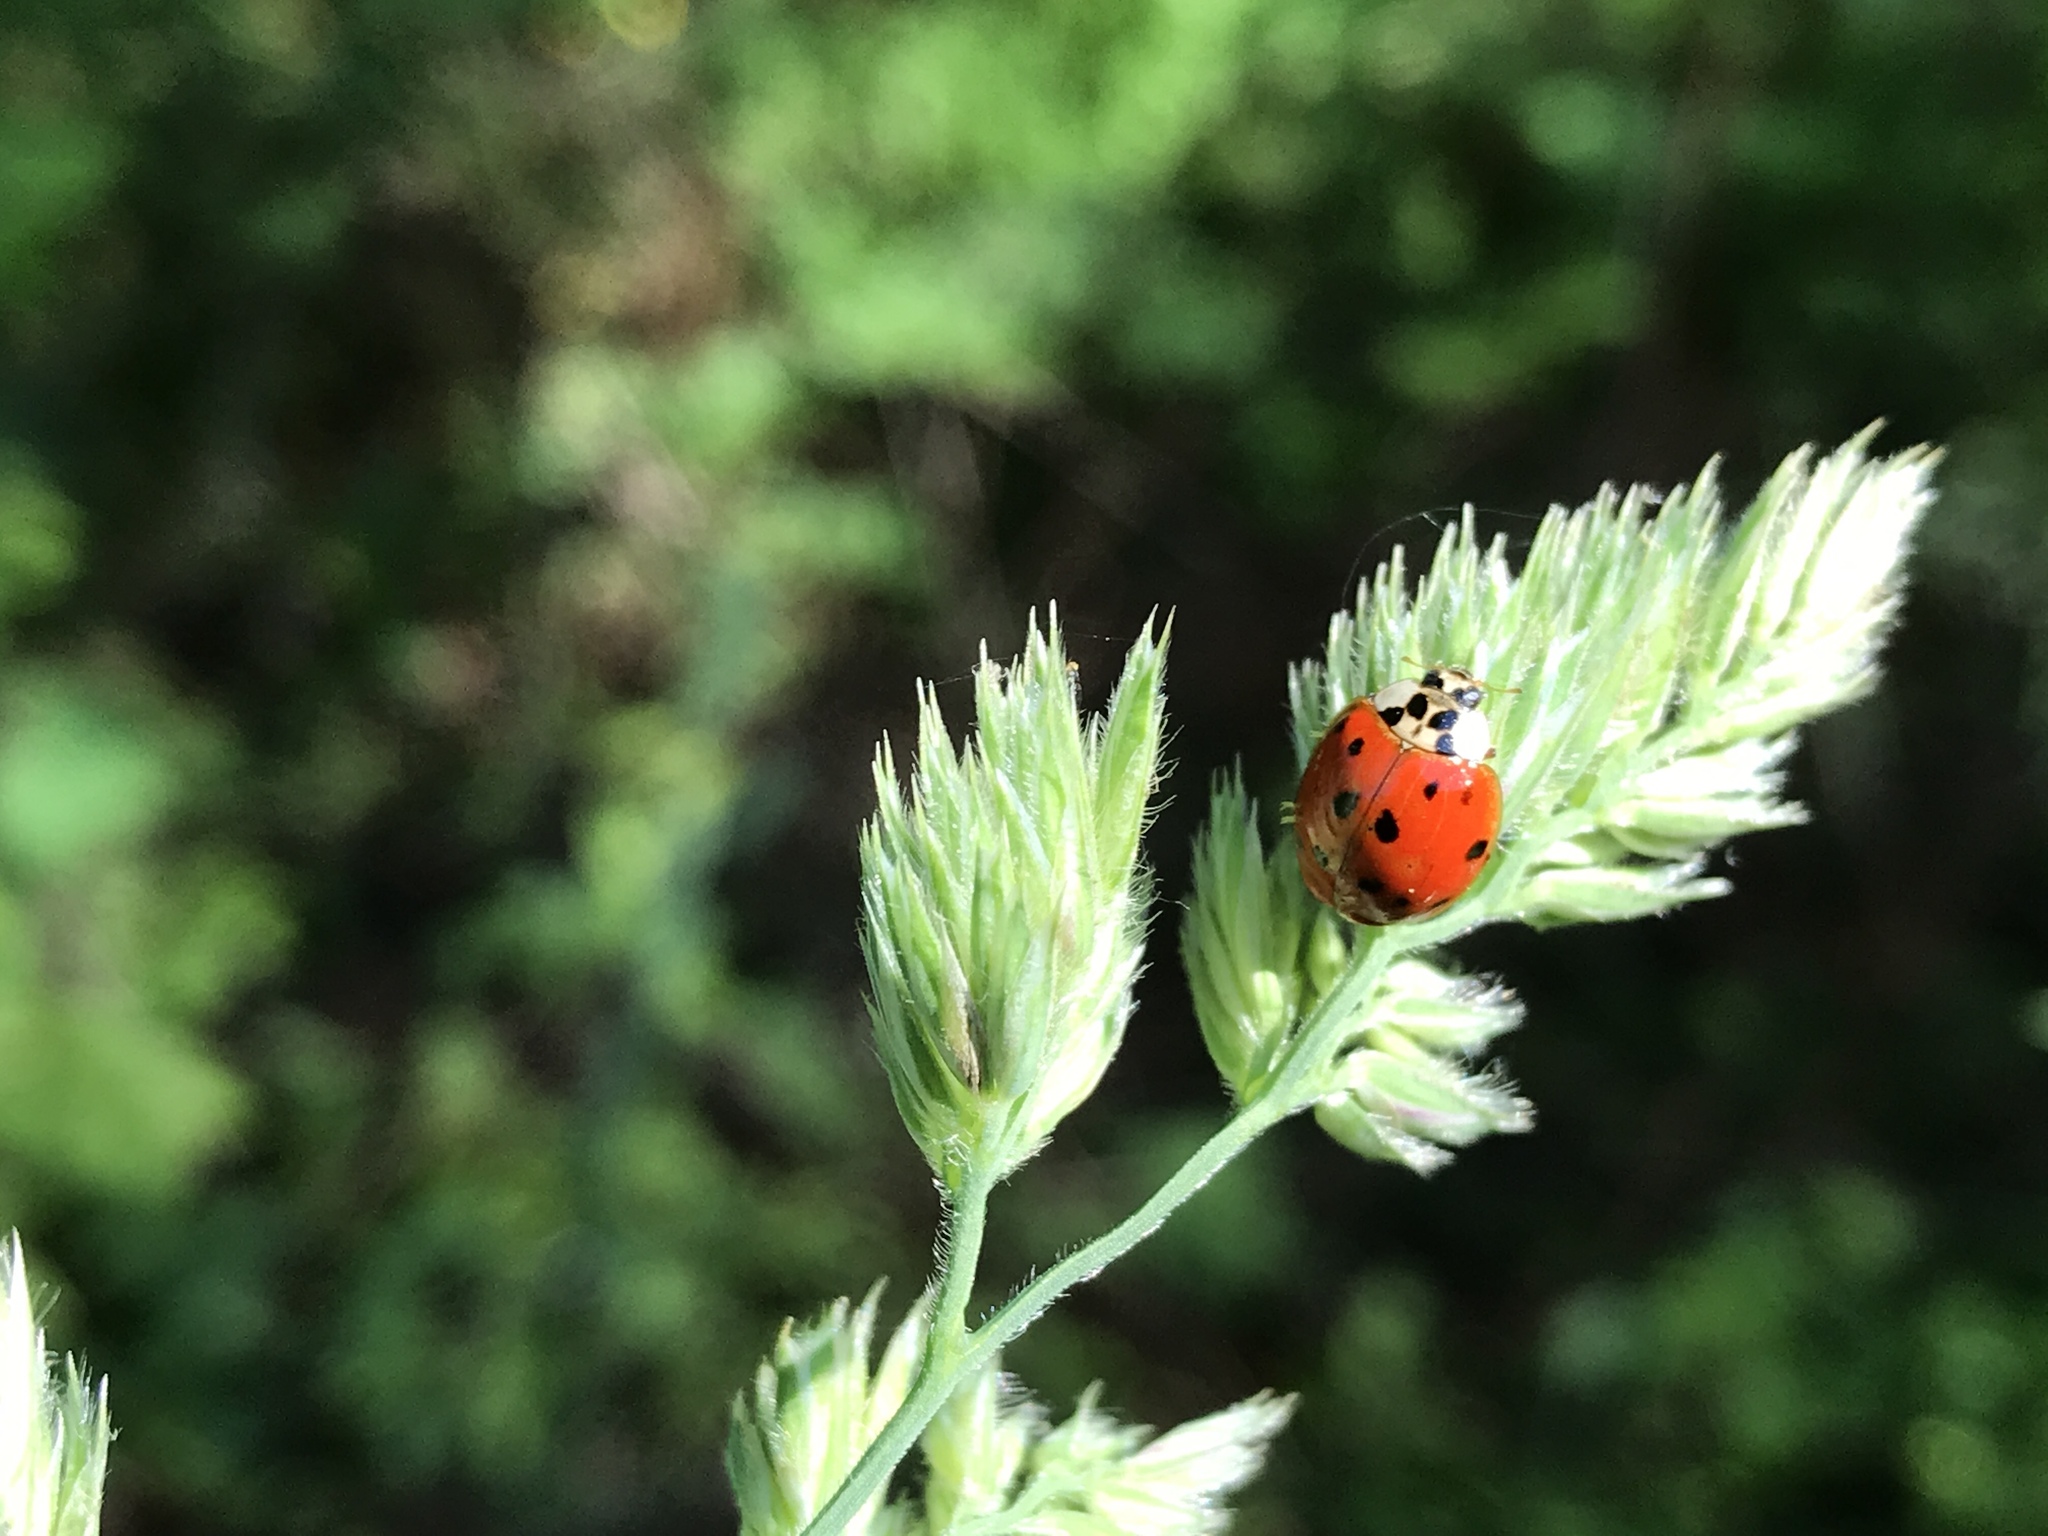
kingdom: Animalia
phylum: Arthropoda
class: Insecta
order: Coleoptera
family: Coccinellidae
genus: Harmonia
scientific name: Harmonia axyridis
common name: Harlequin ladybird
